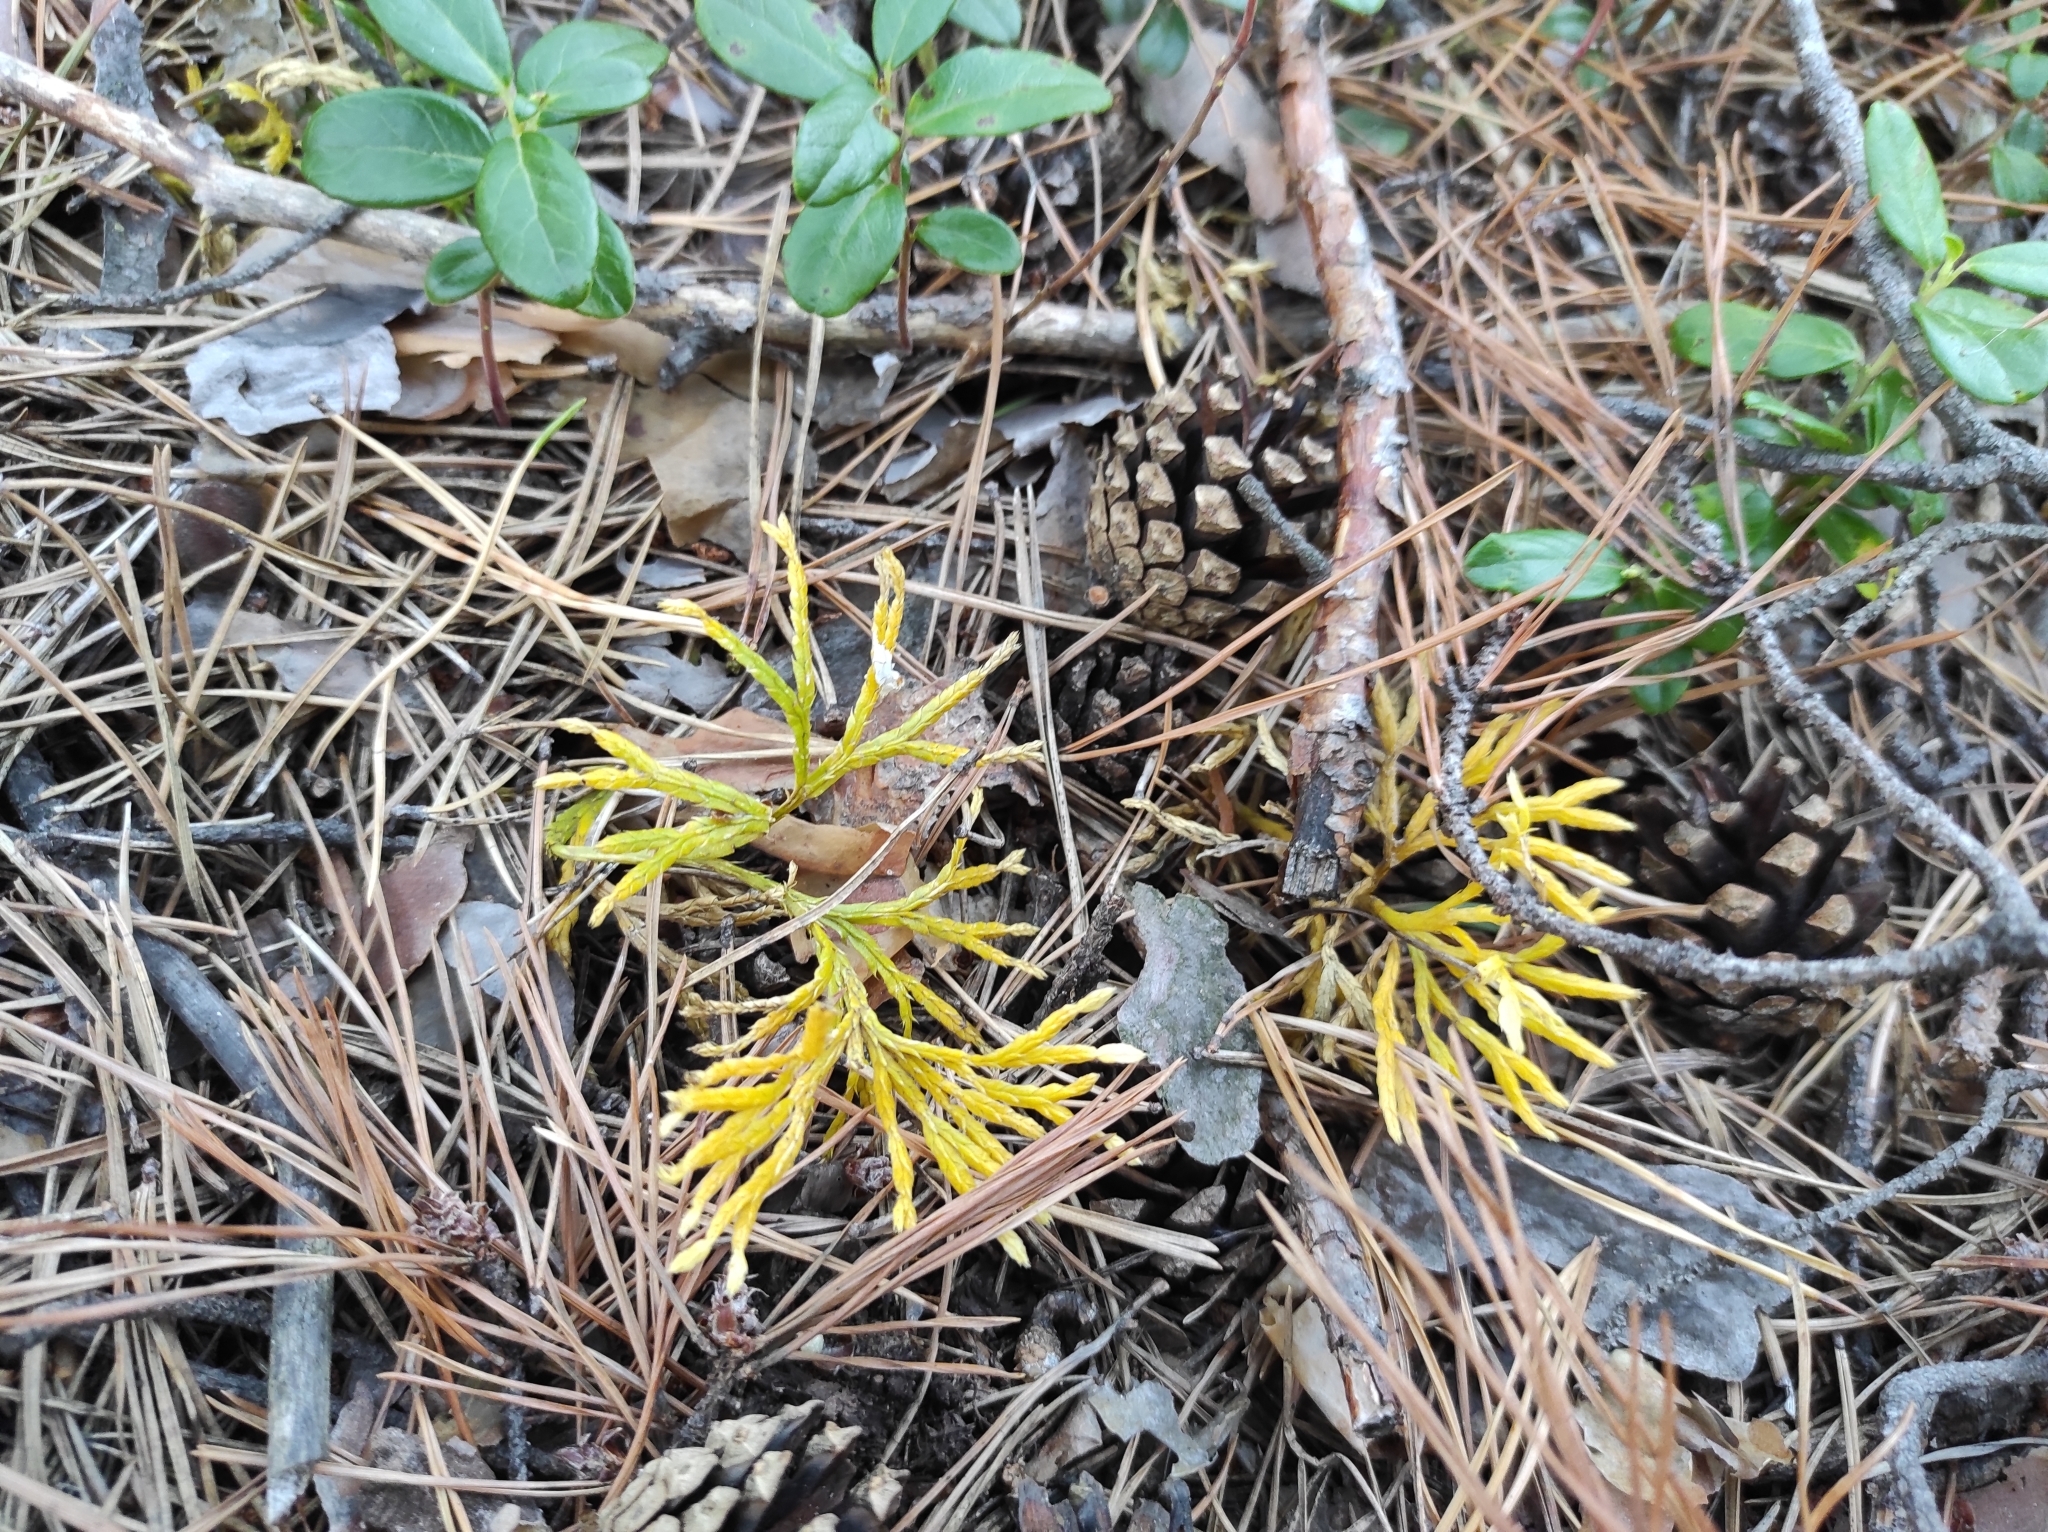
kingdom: Plantae
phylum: Tracheophyta
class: Lycopodiopsida
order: Lycopodiales
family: Lycopodiaceae
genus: Diphasiastrum
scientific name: Diphasiastrum complanatum
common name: Northern running-pine
